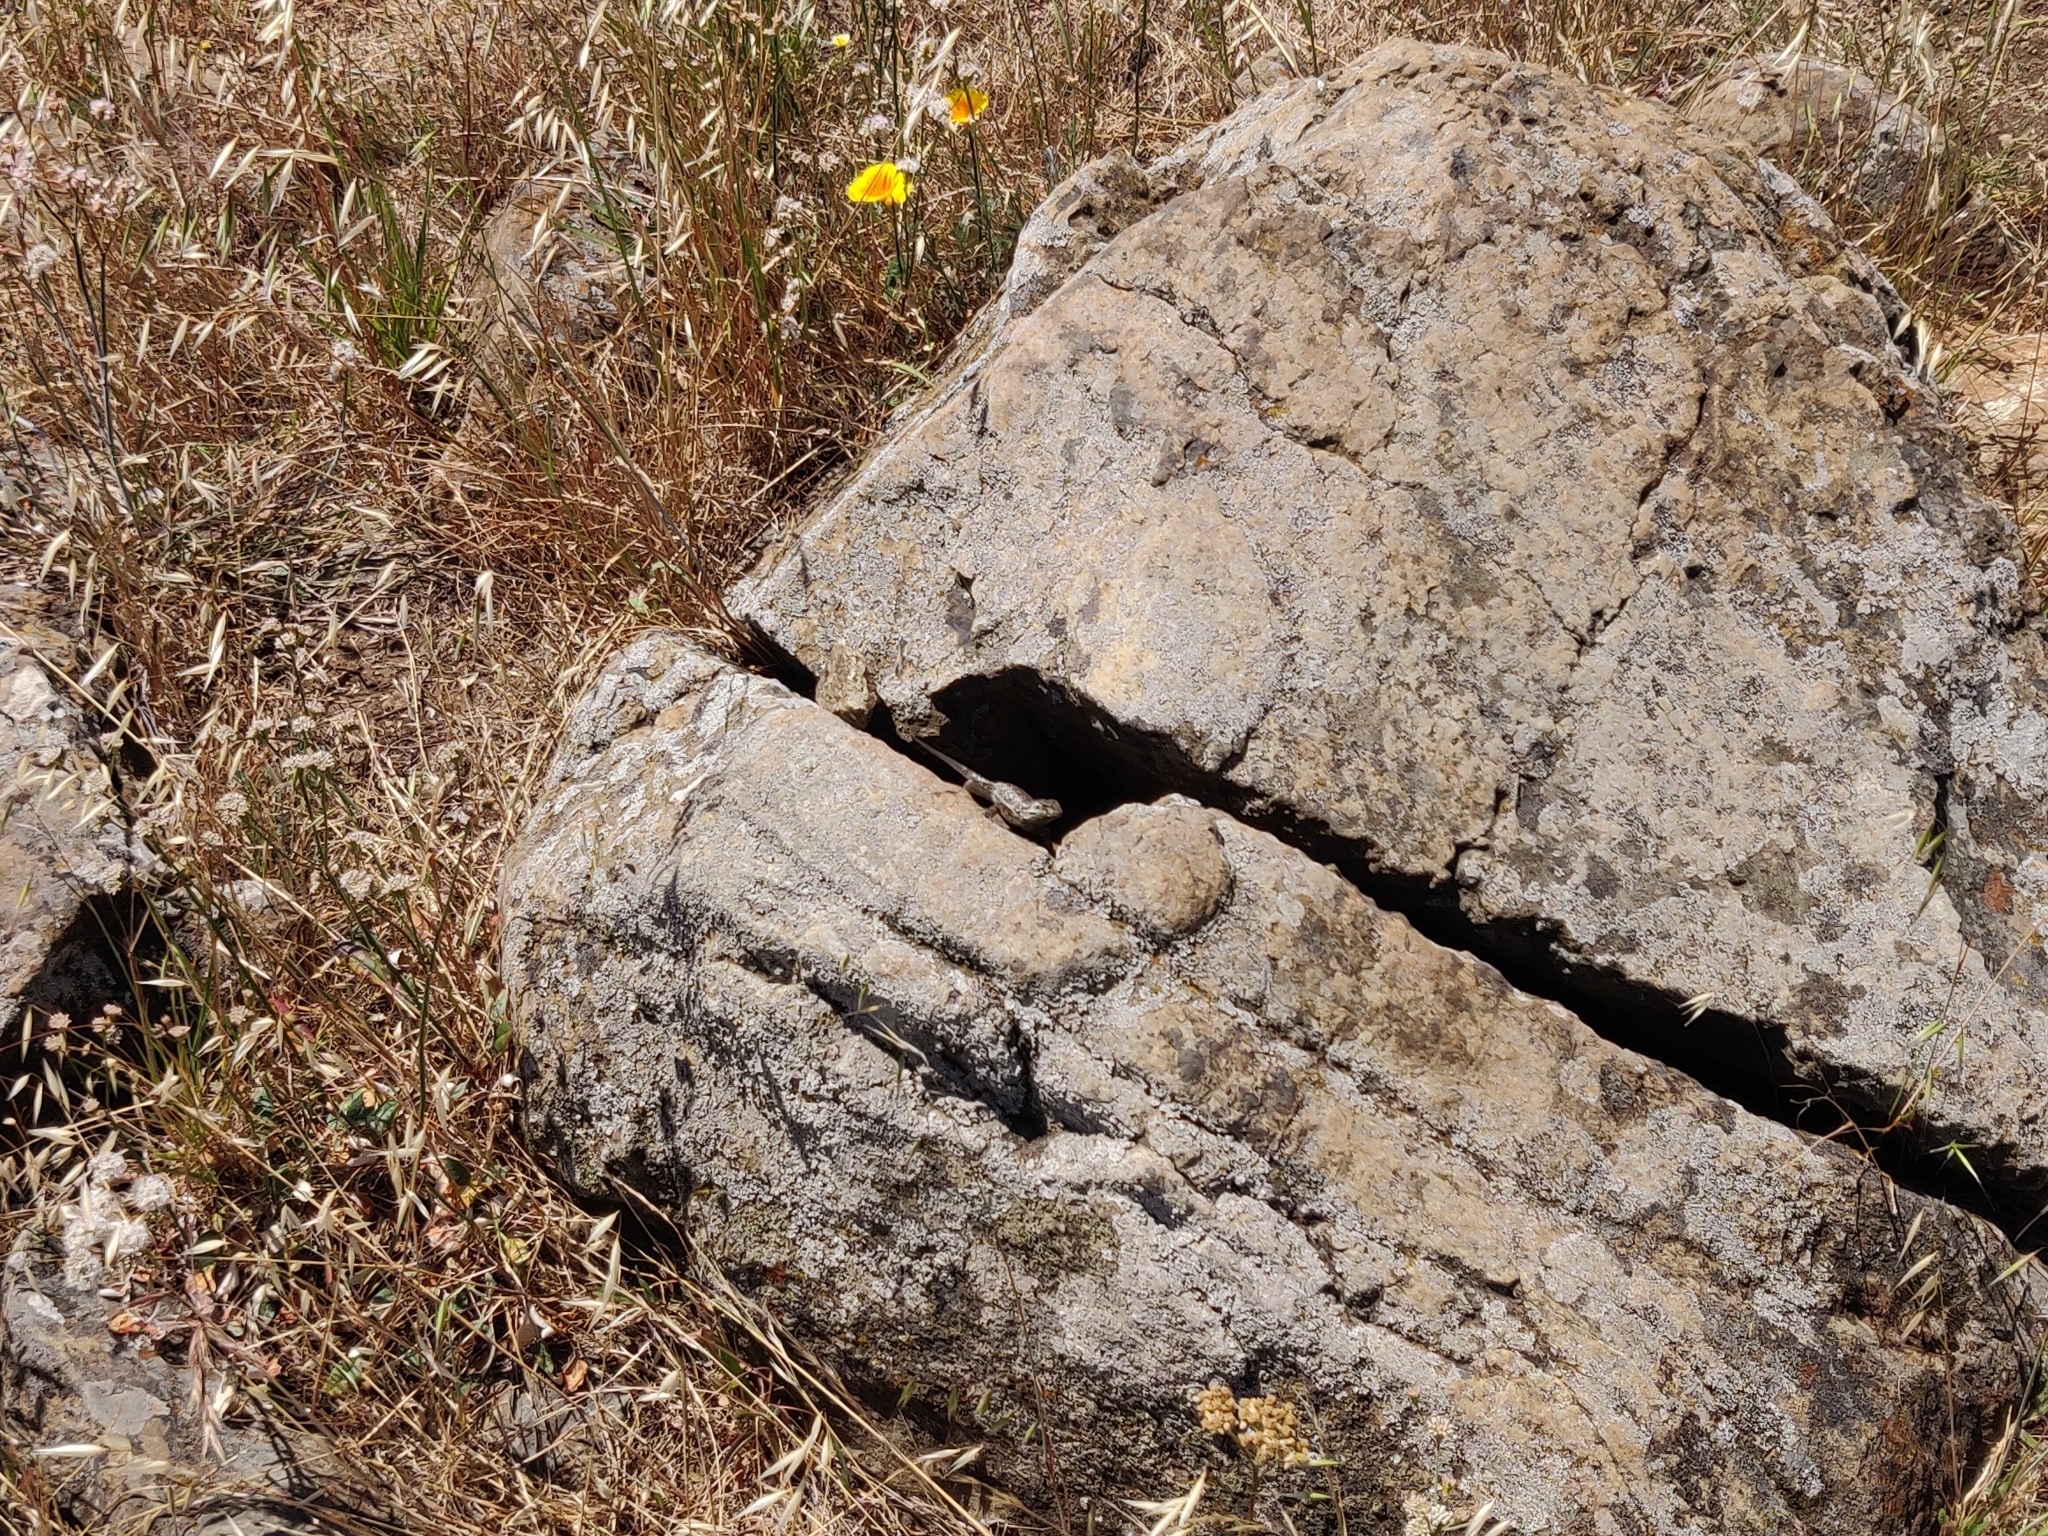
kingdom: Animalia
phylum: Chordata
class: Squamata
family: Phrynosomatidae
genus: Sceloporus
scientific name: Sceloporus occidentalis
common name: Western fence lizard
